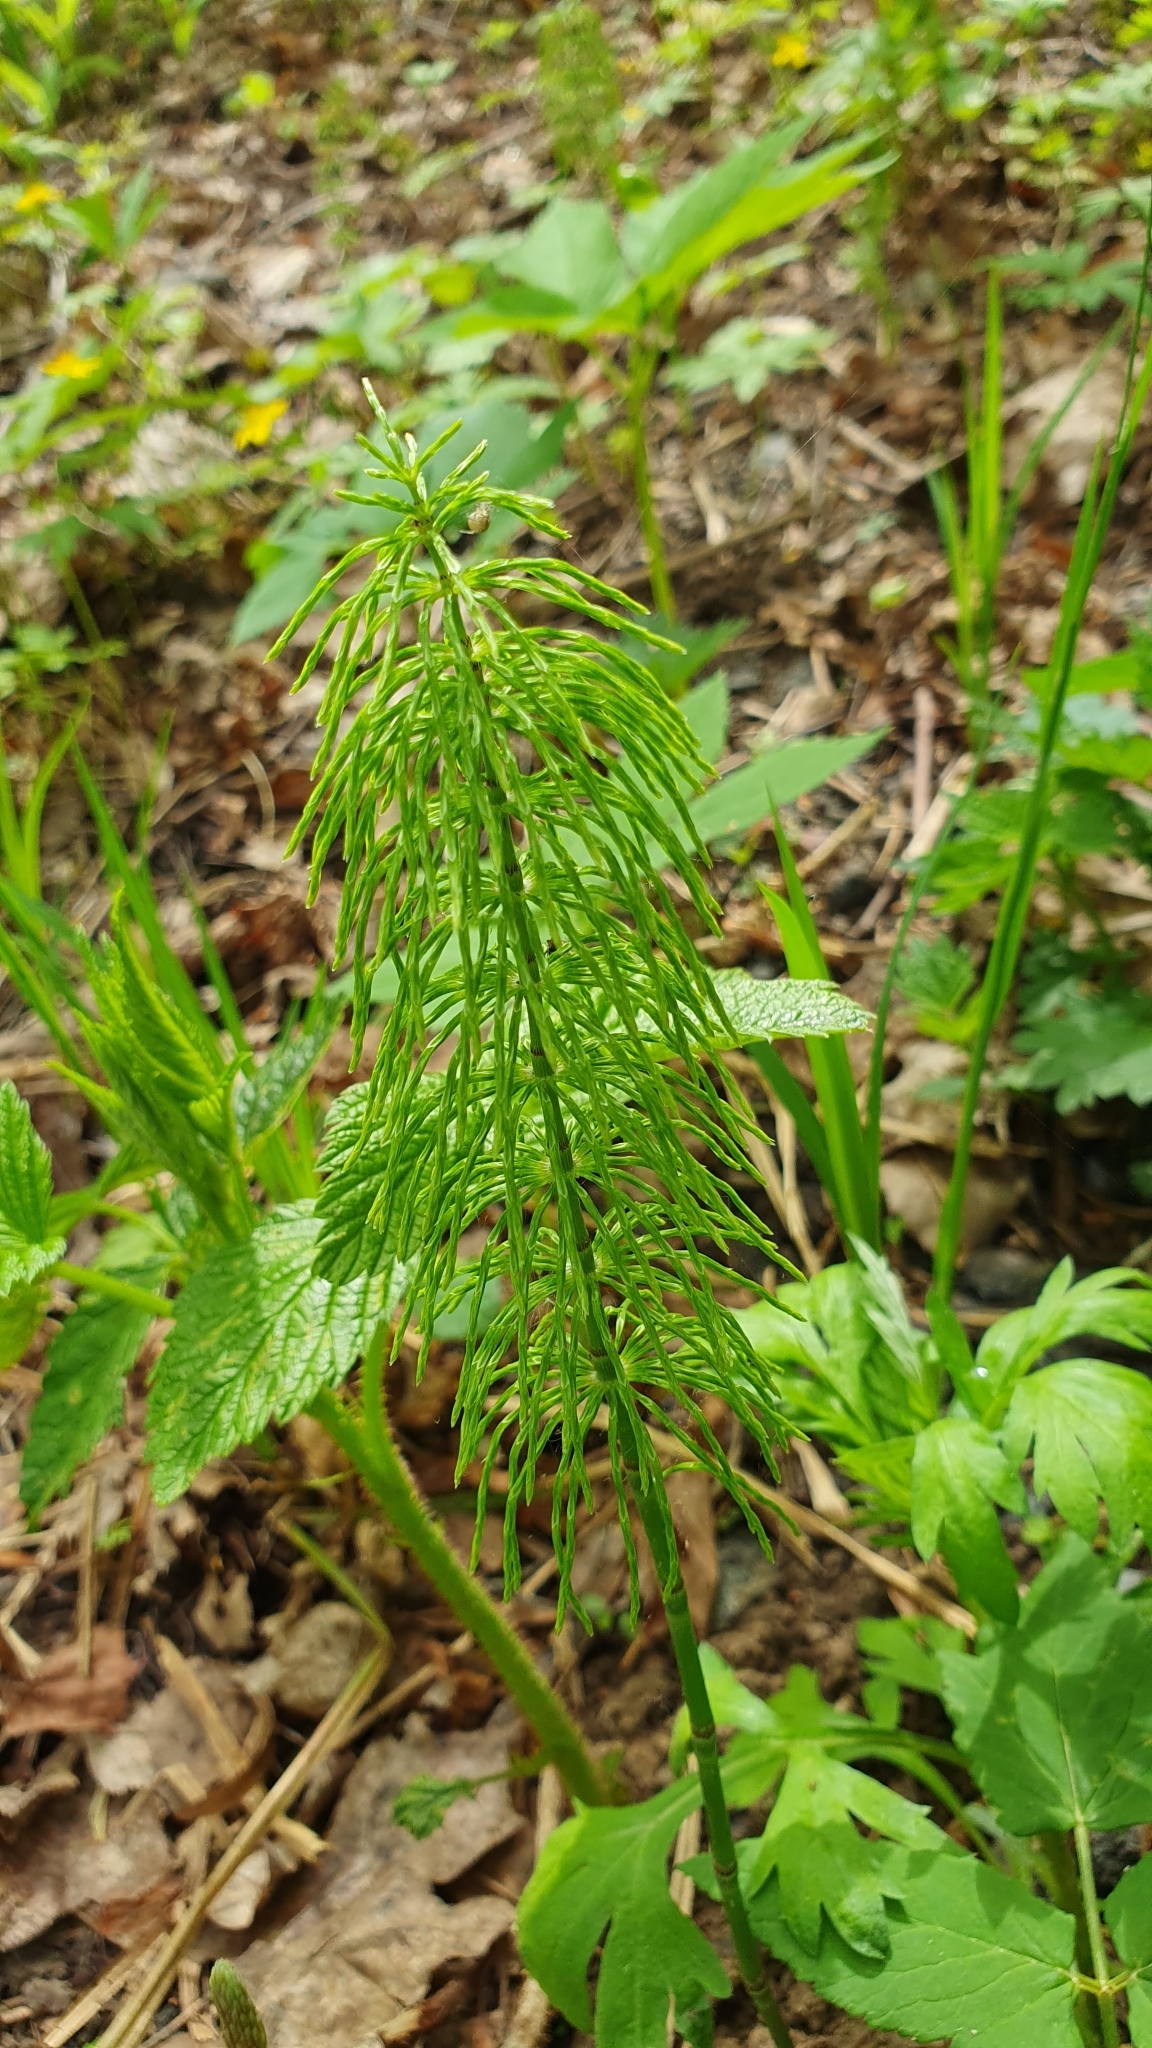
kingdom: Plantae
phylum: Tracheophyta
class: Polypodiopsida
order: Equisetales
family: Equisetaceae
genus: Equisetum
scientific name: Equisetum pratense
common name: Meadow horsetail
